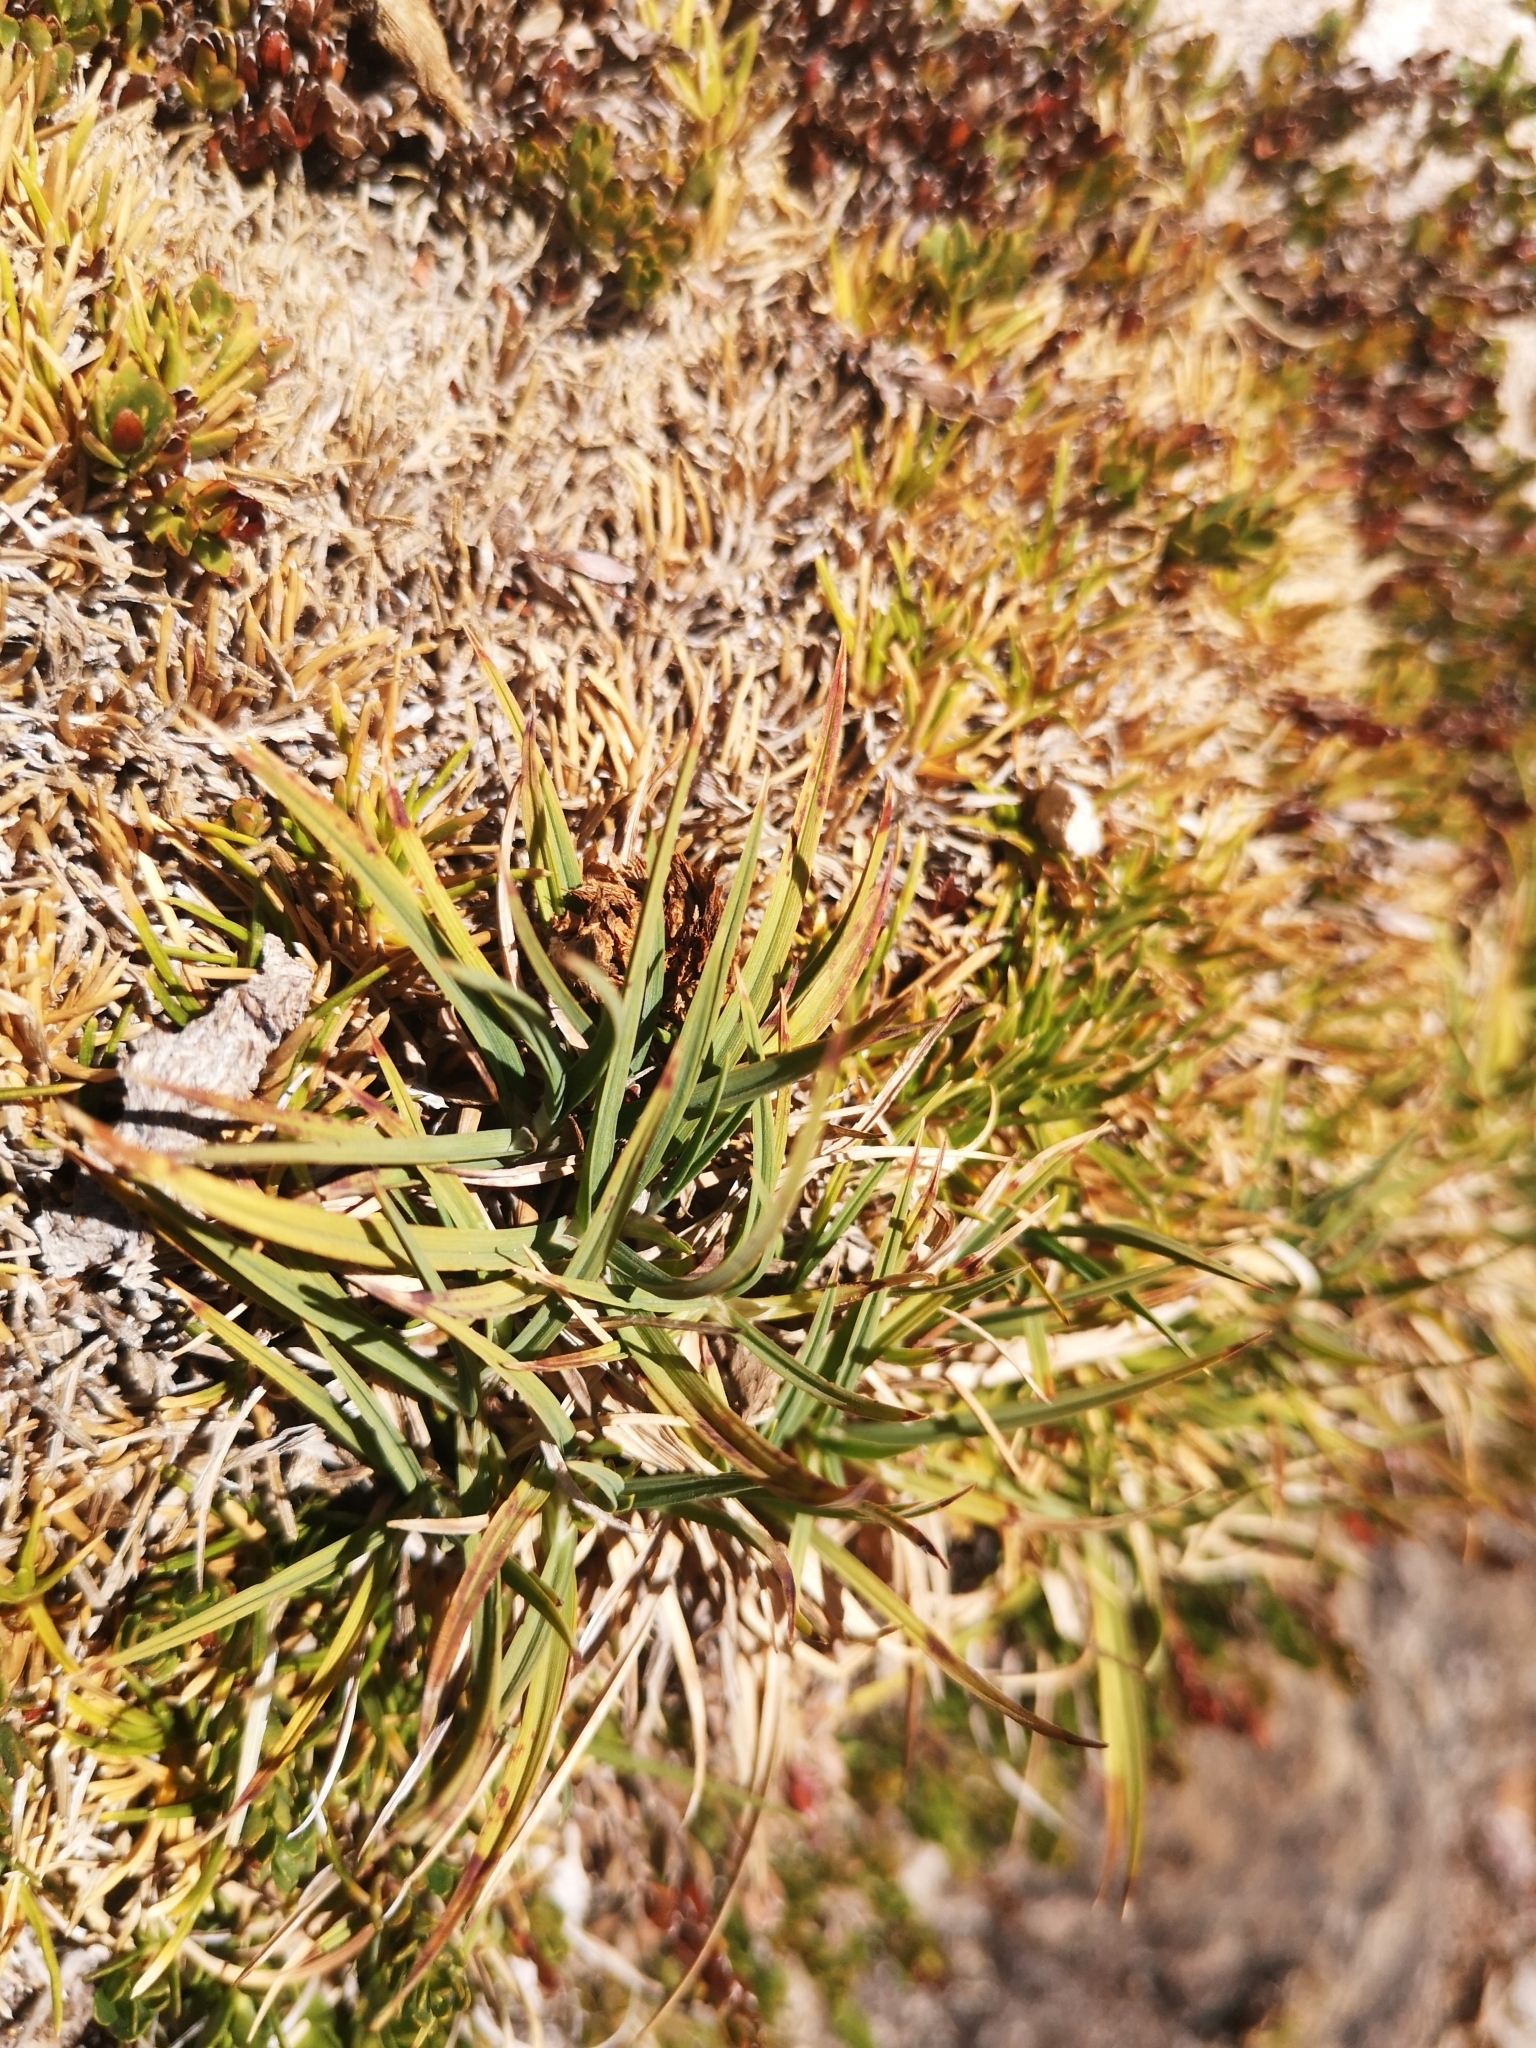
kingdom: Plantae
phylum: Tracheophyta
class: Liliopsida
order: Poales
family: Cyperaceae
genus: Carex
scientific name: Carex gayana
